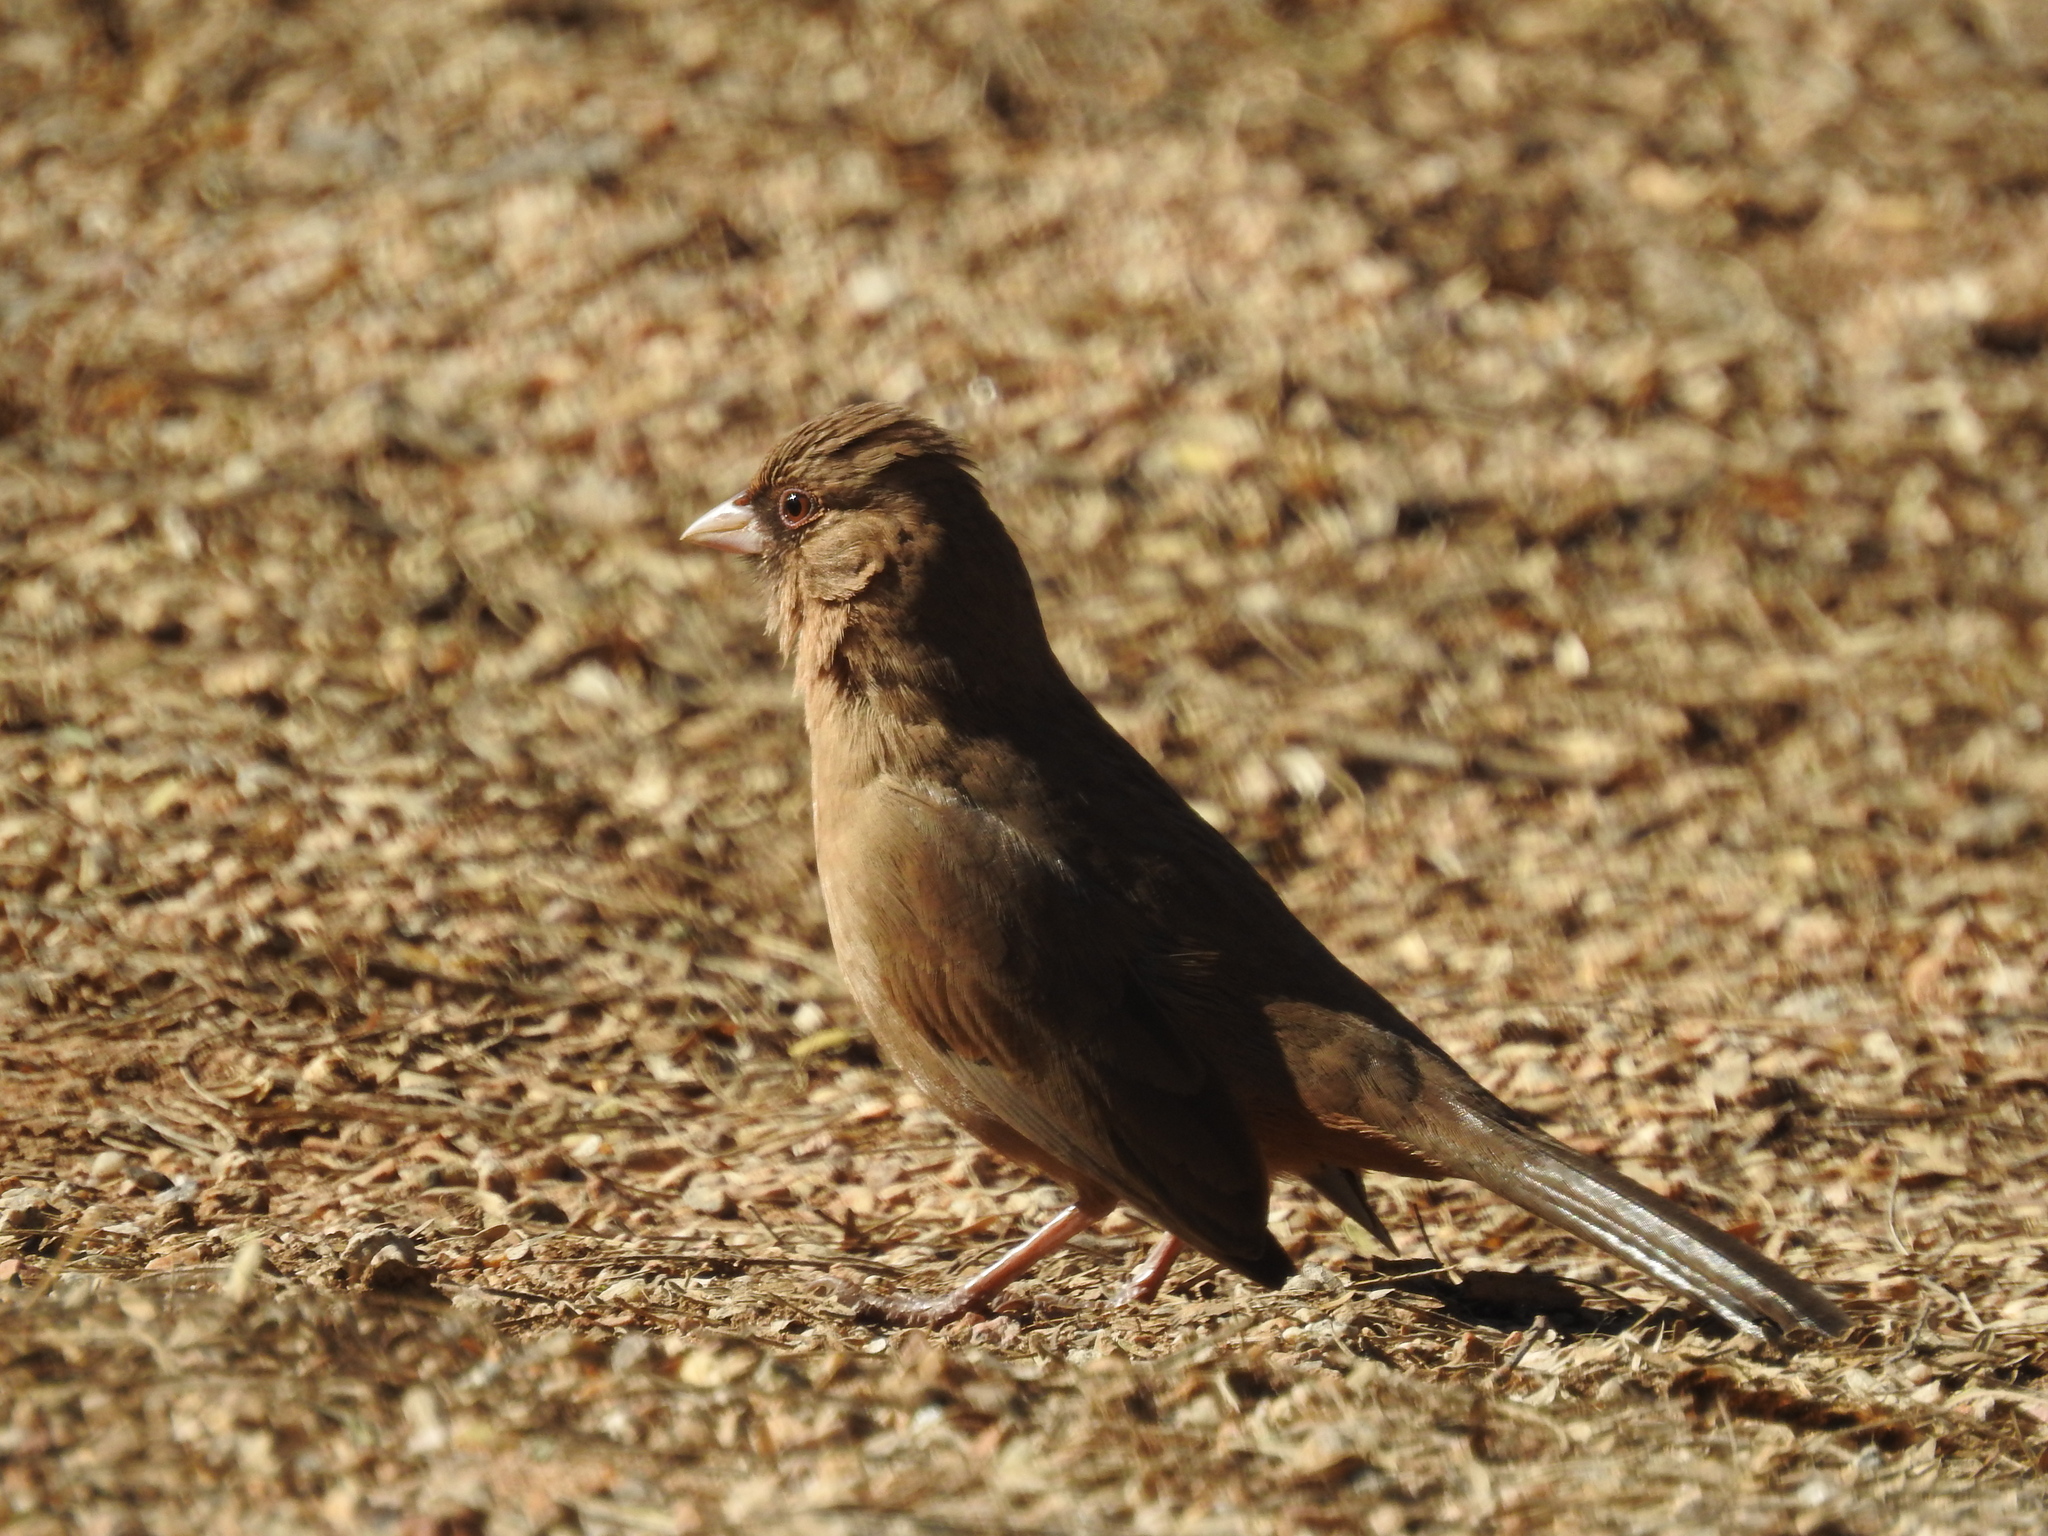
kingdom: Animalia
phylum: Chordata
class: Aves
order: Passeriformes
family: Passerellidae
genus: Melozone
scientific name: Melozone aberti
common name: Abert's towhee
